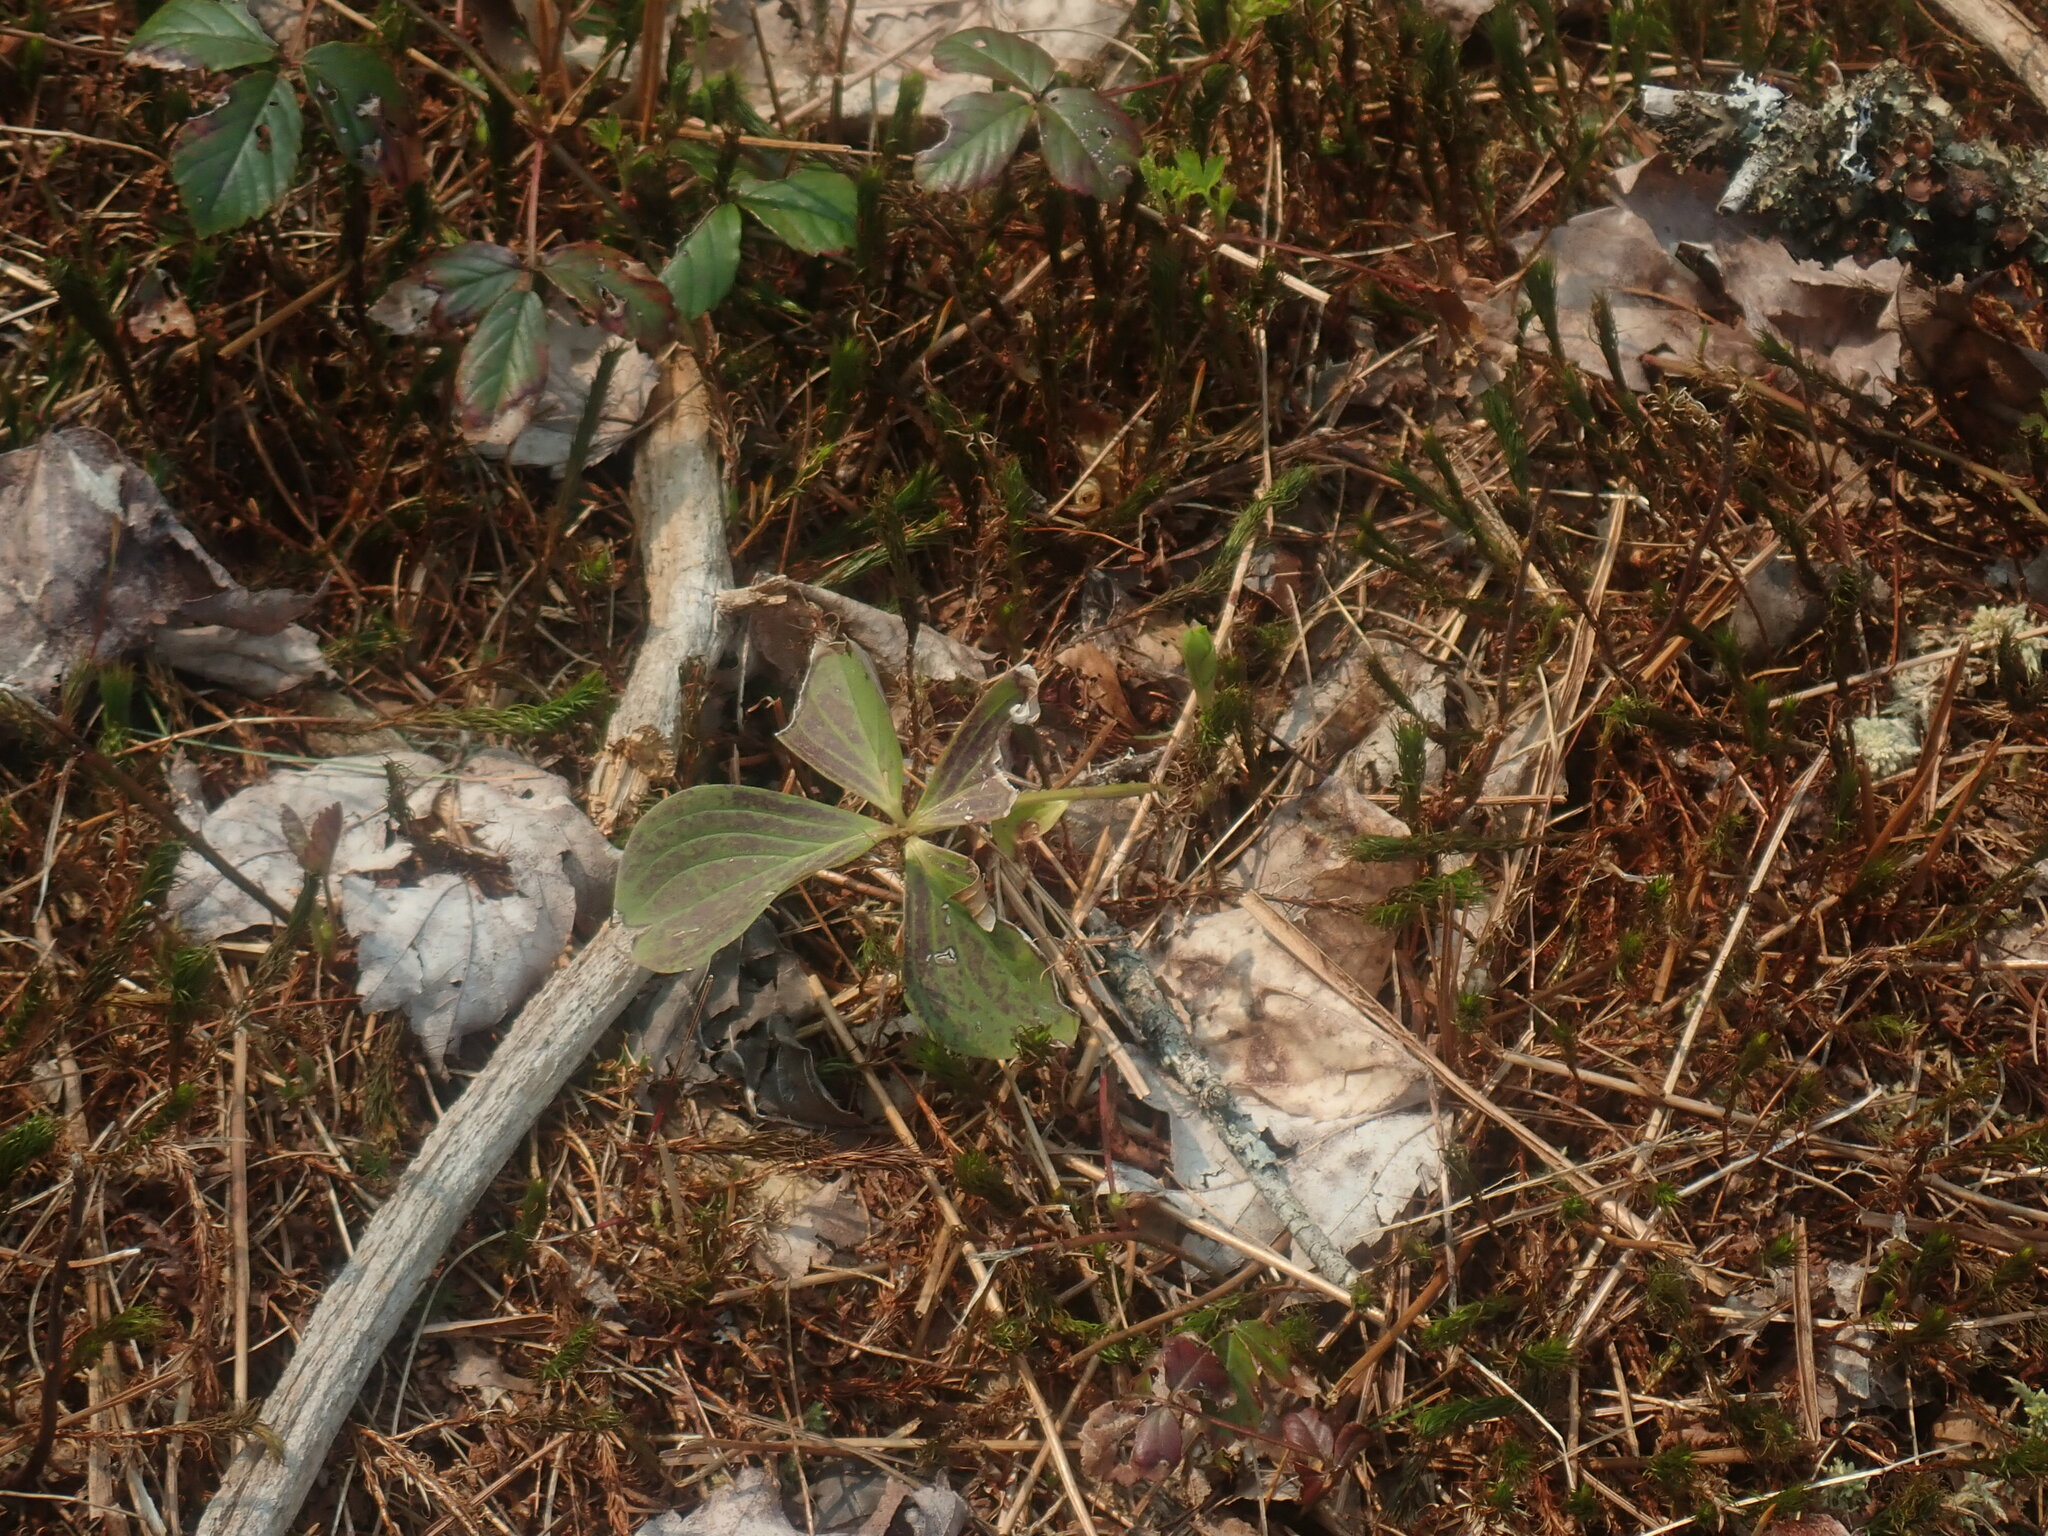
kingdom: Plantae
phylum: Tracheophyta
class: Magnoliopsida
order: Cornales
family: Cornaceae
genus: Cornus
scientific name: Cornus canadensis
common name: Creeping dogwood
